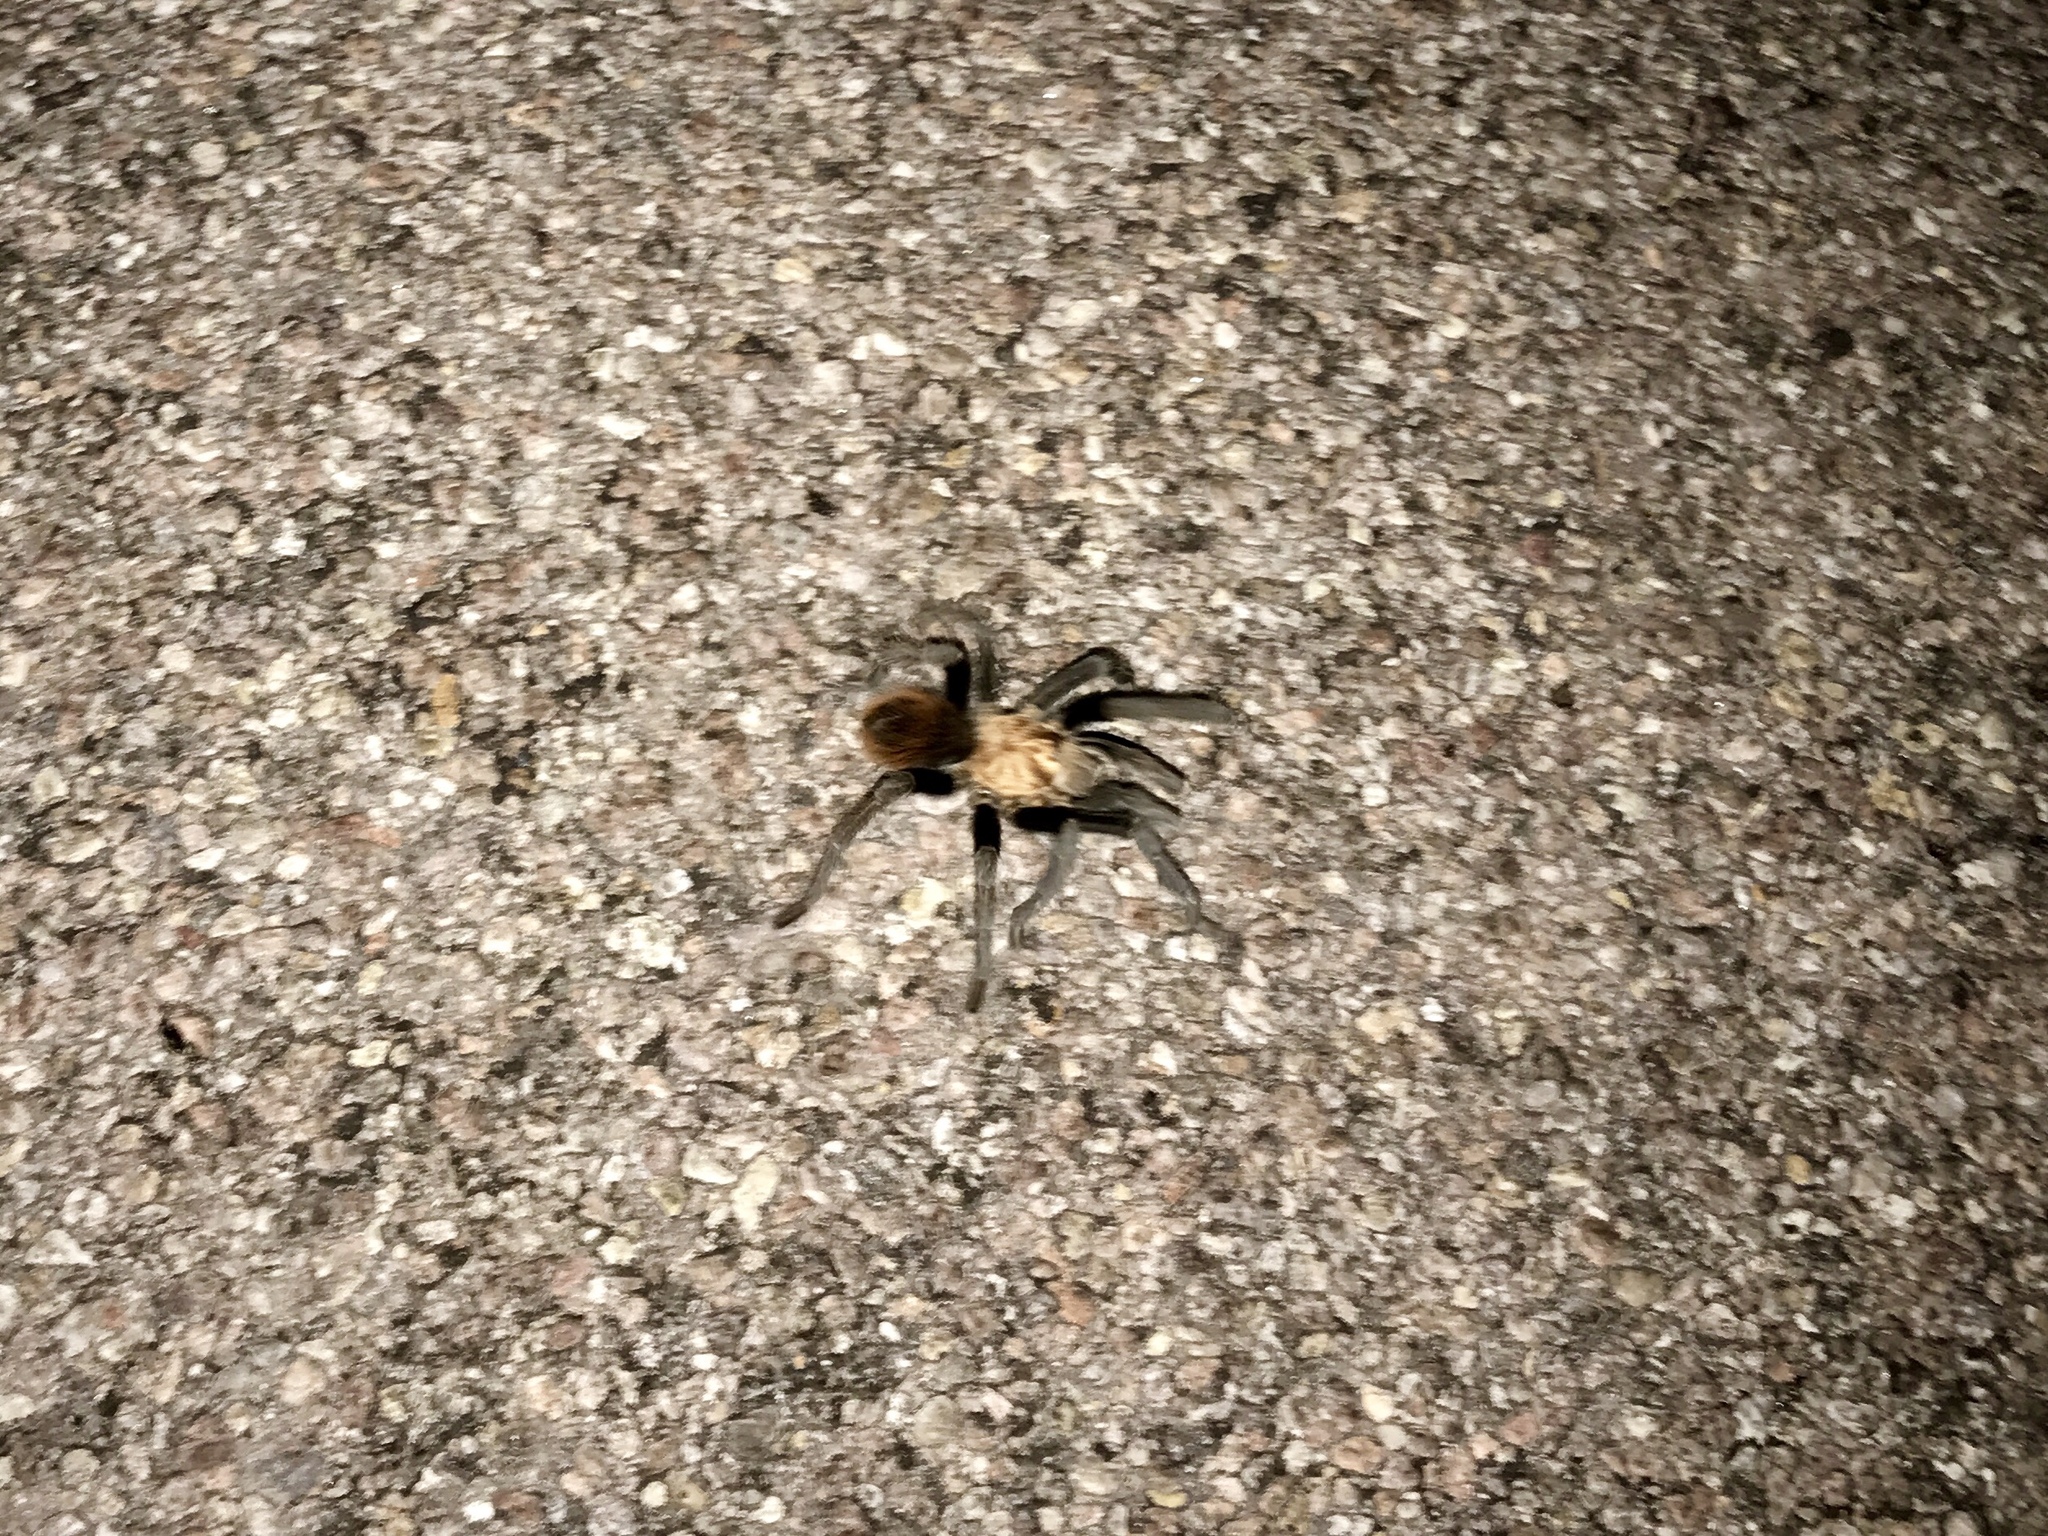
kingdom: Animalia
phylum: Arthropoda
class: Arachnida
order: Araneae
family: Theraphosidae
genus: Aphonopelma
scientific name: Aphonopelma chalcodes
